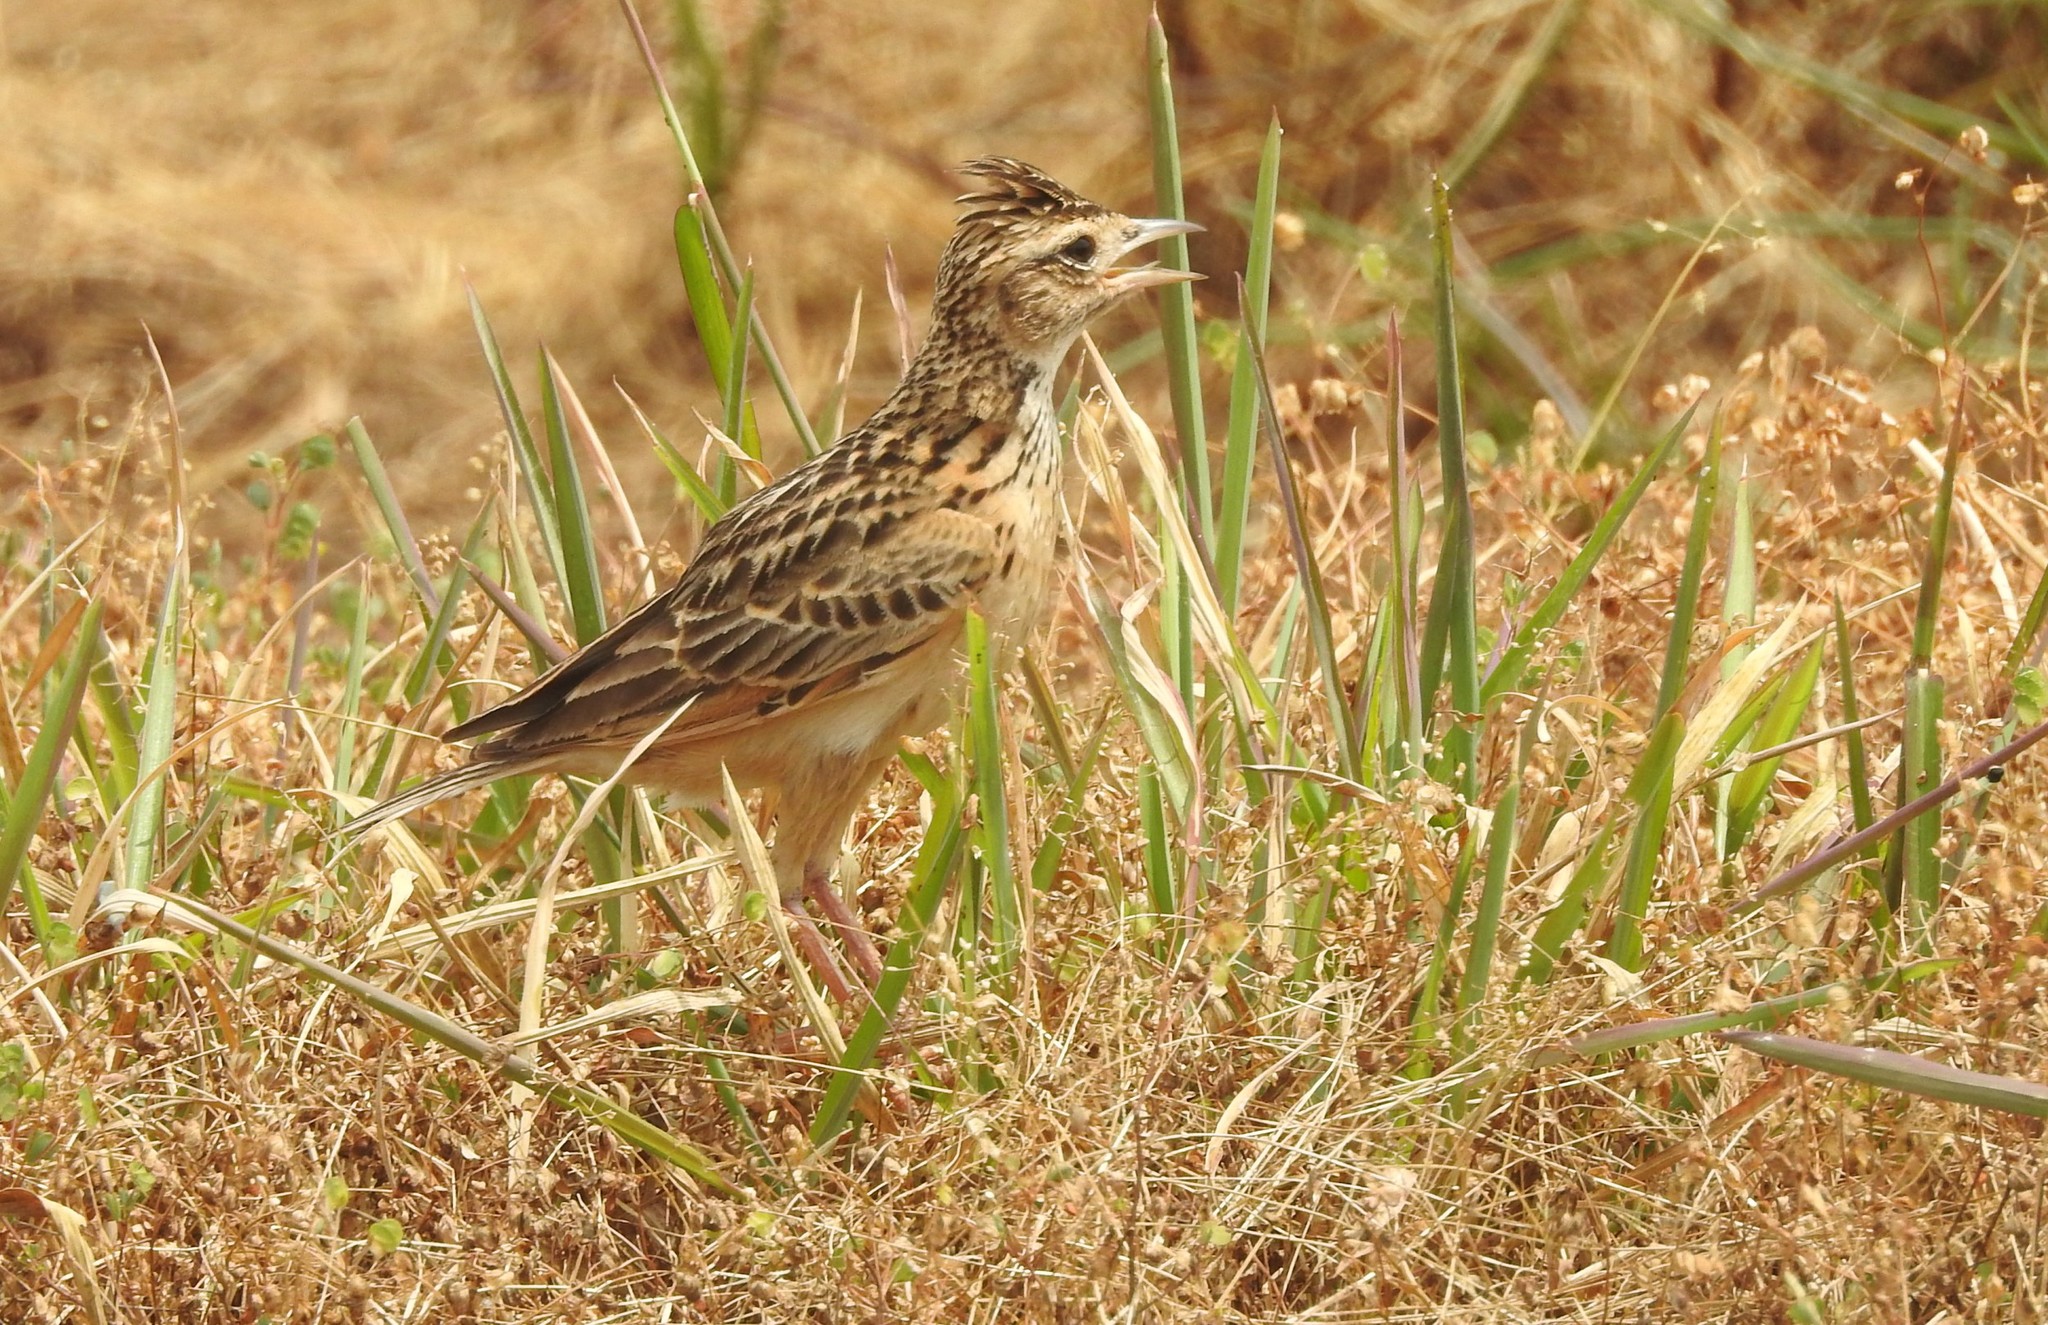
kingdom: Animalia
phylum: Chordata
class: Aves
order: Passeriformes
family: Alaudidae
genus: Galerida
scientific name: Galerida cristata
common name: Crested lark
